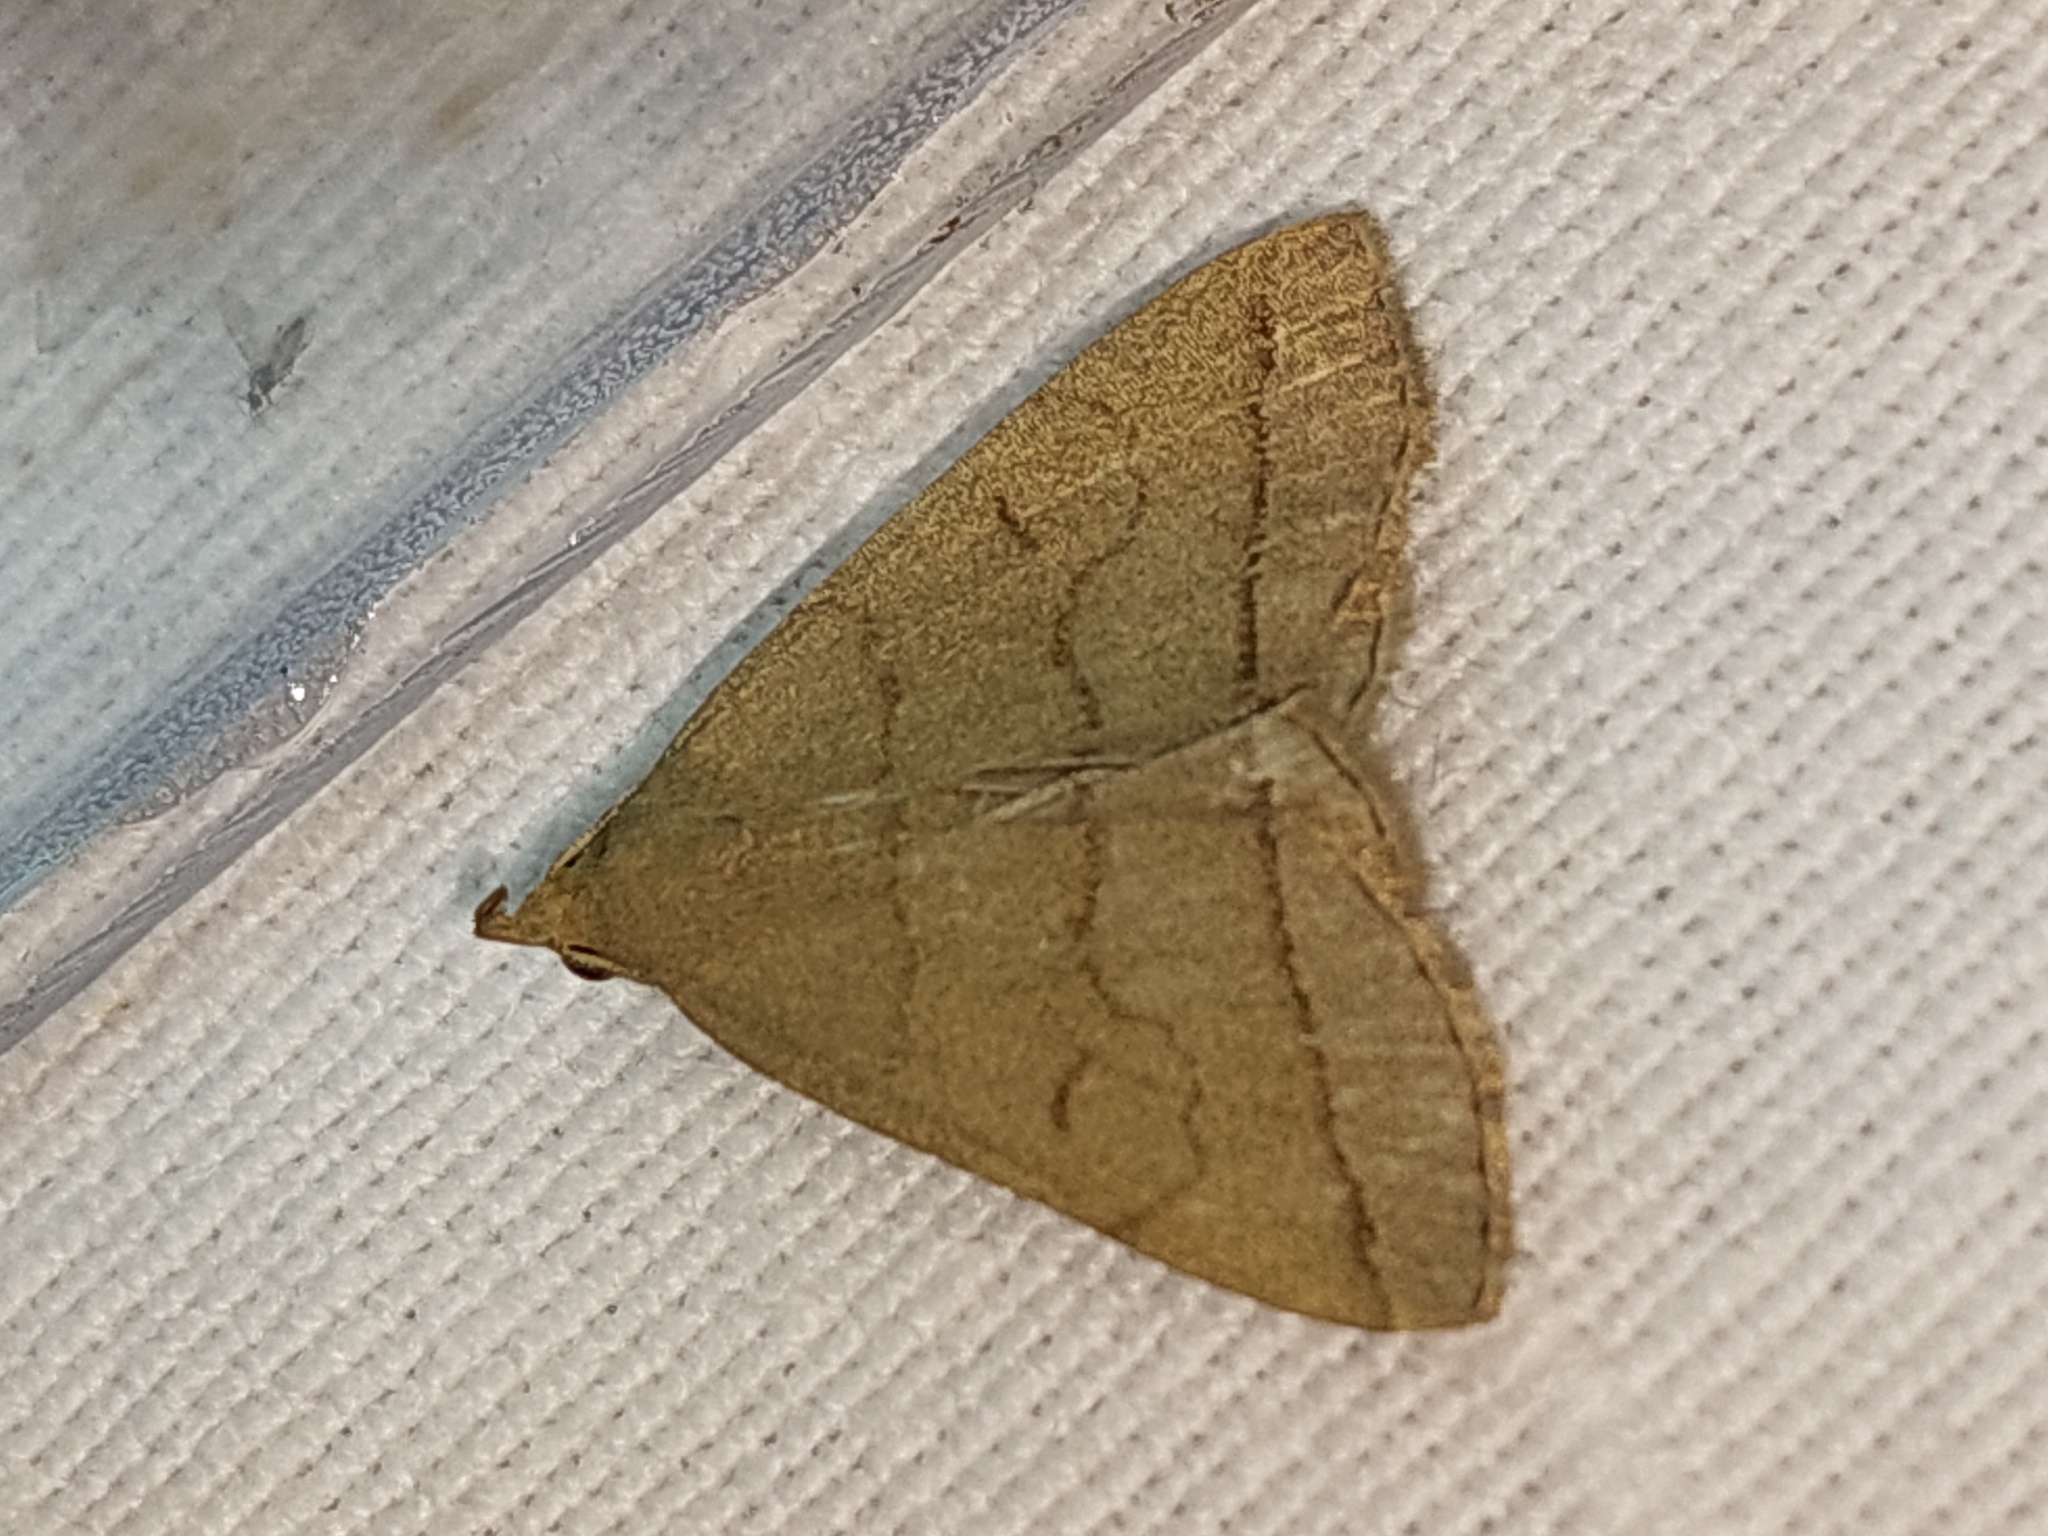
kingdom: Animalia
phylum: Arthropoda
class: Insecta
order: Lepidoptera
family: Erebidae
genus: Herminia
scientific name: Herminia tarsipennalis
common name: Fan-foot
